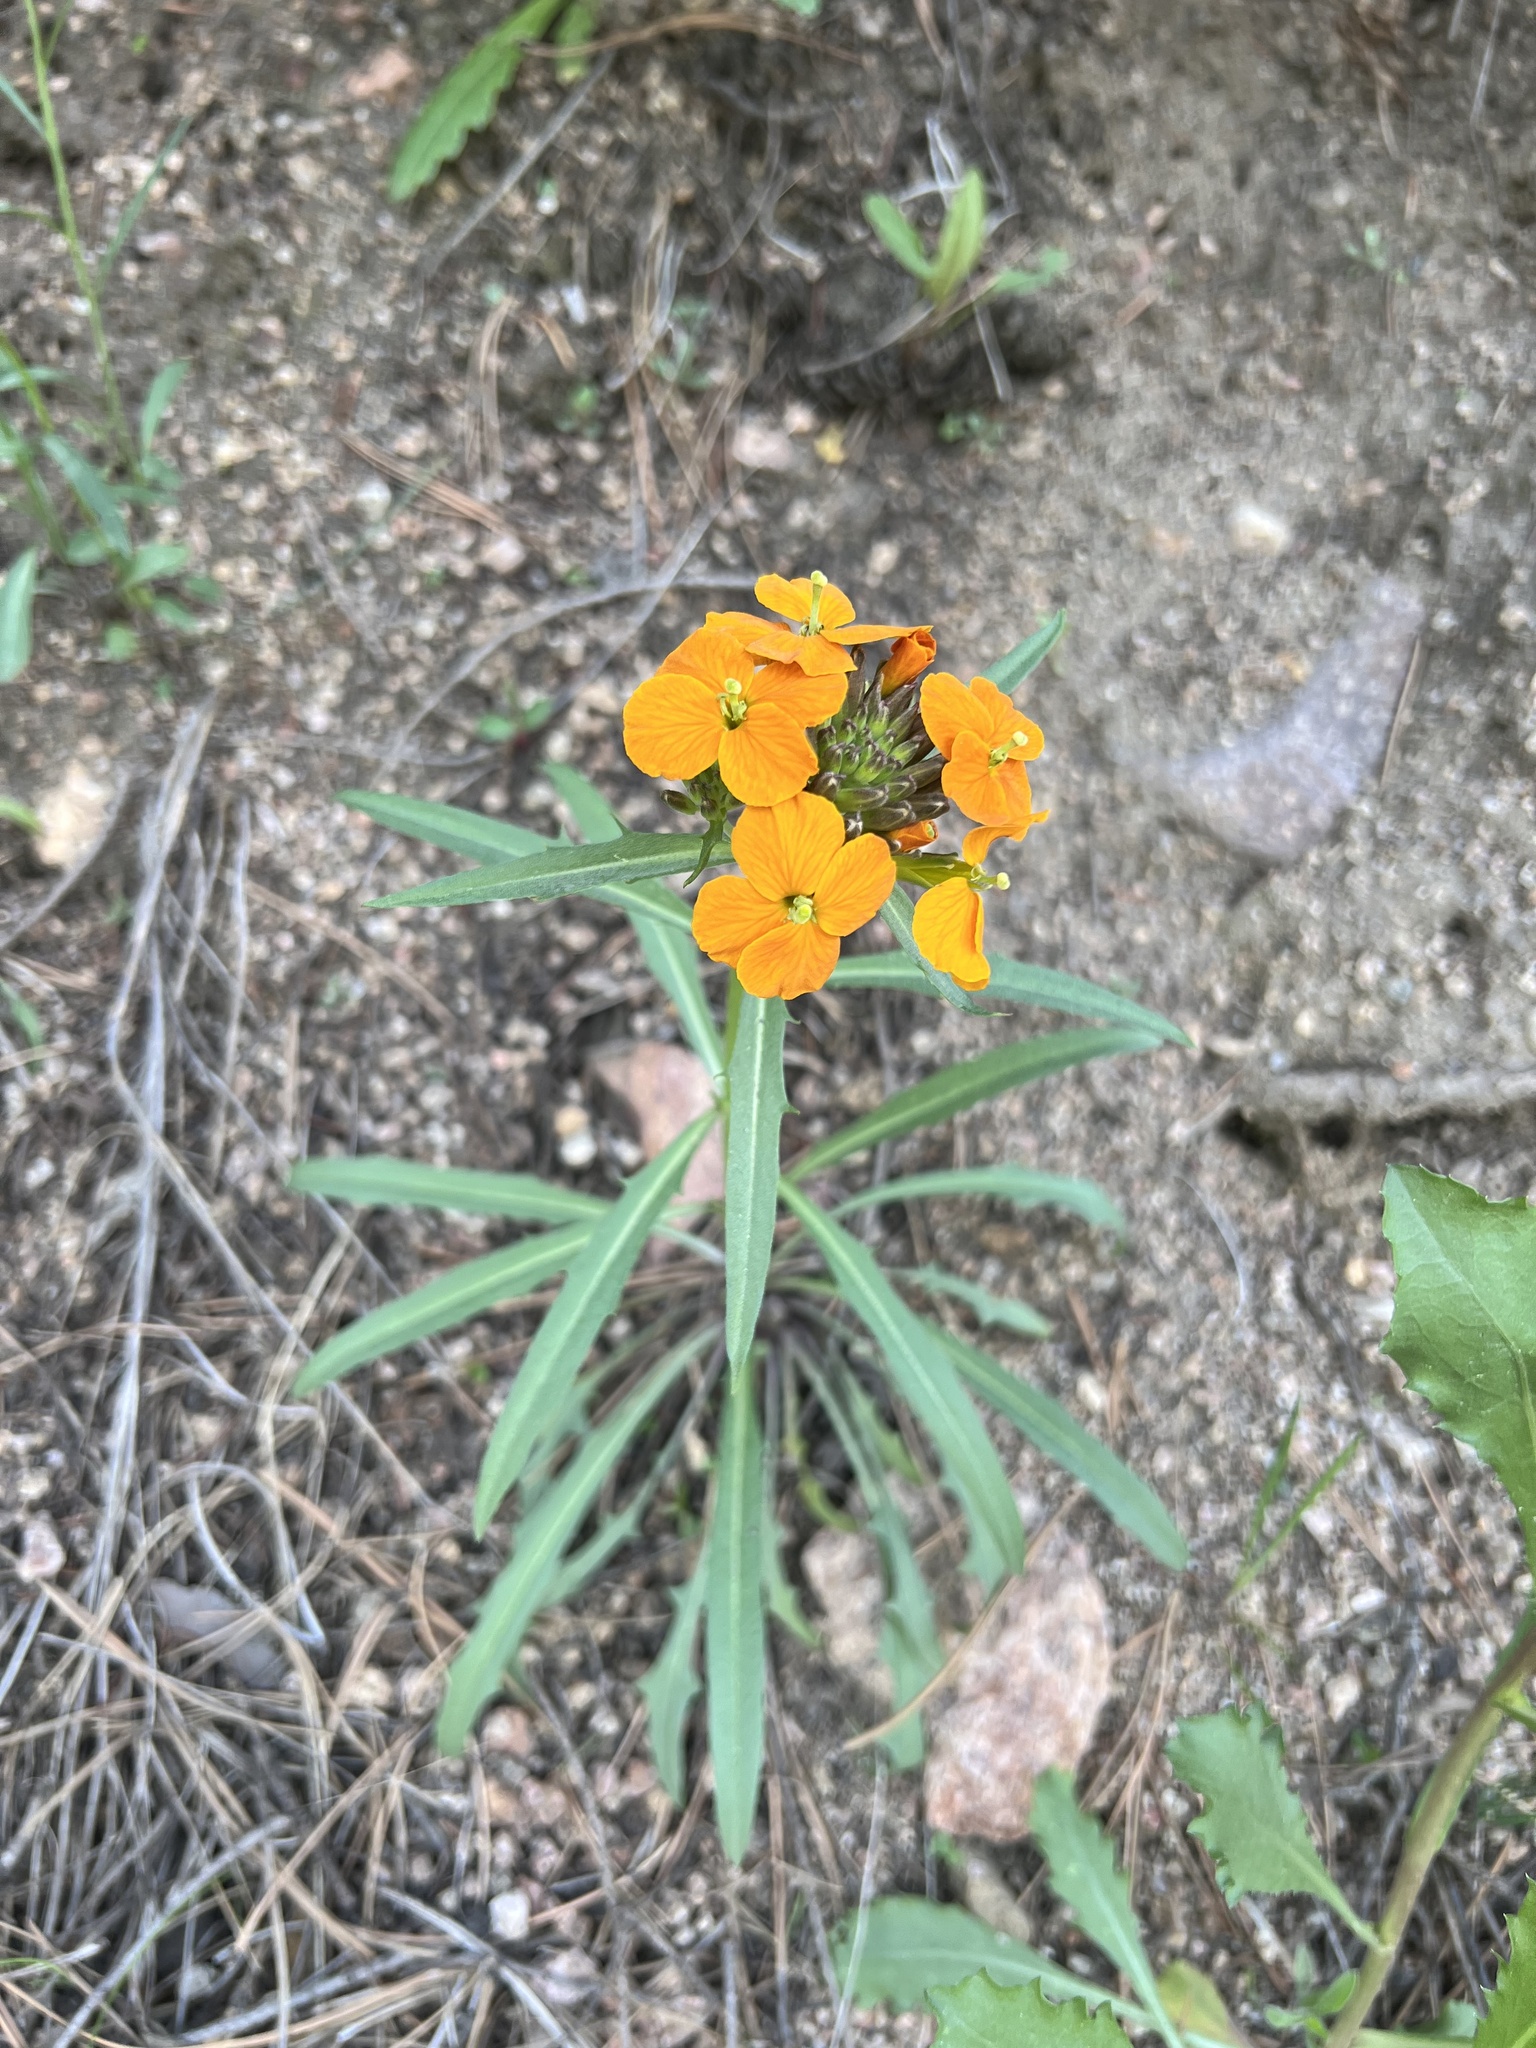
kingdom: Plantae
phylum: Tracheophyta
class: Magnoliopsida
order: Brassicales
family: Brassicaceae
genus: Erysimum
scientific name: Erysimum capitatum
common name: Western wallflower
